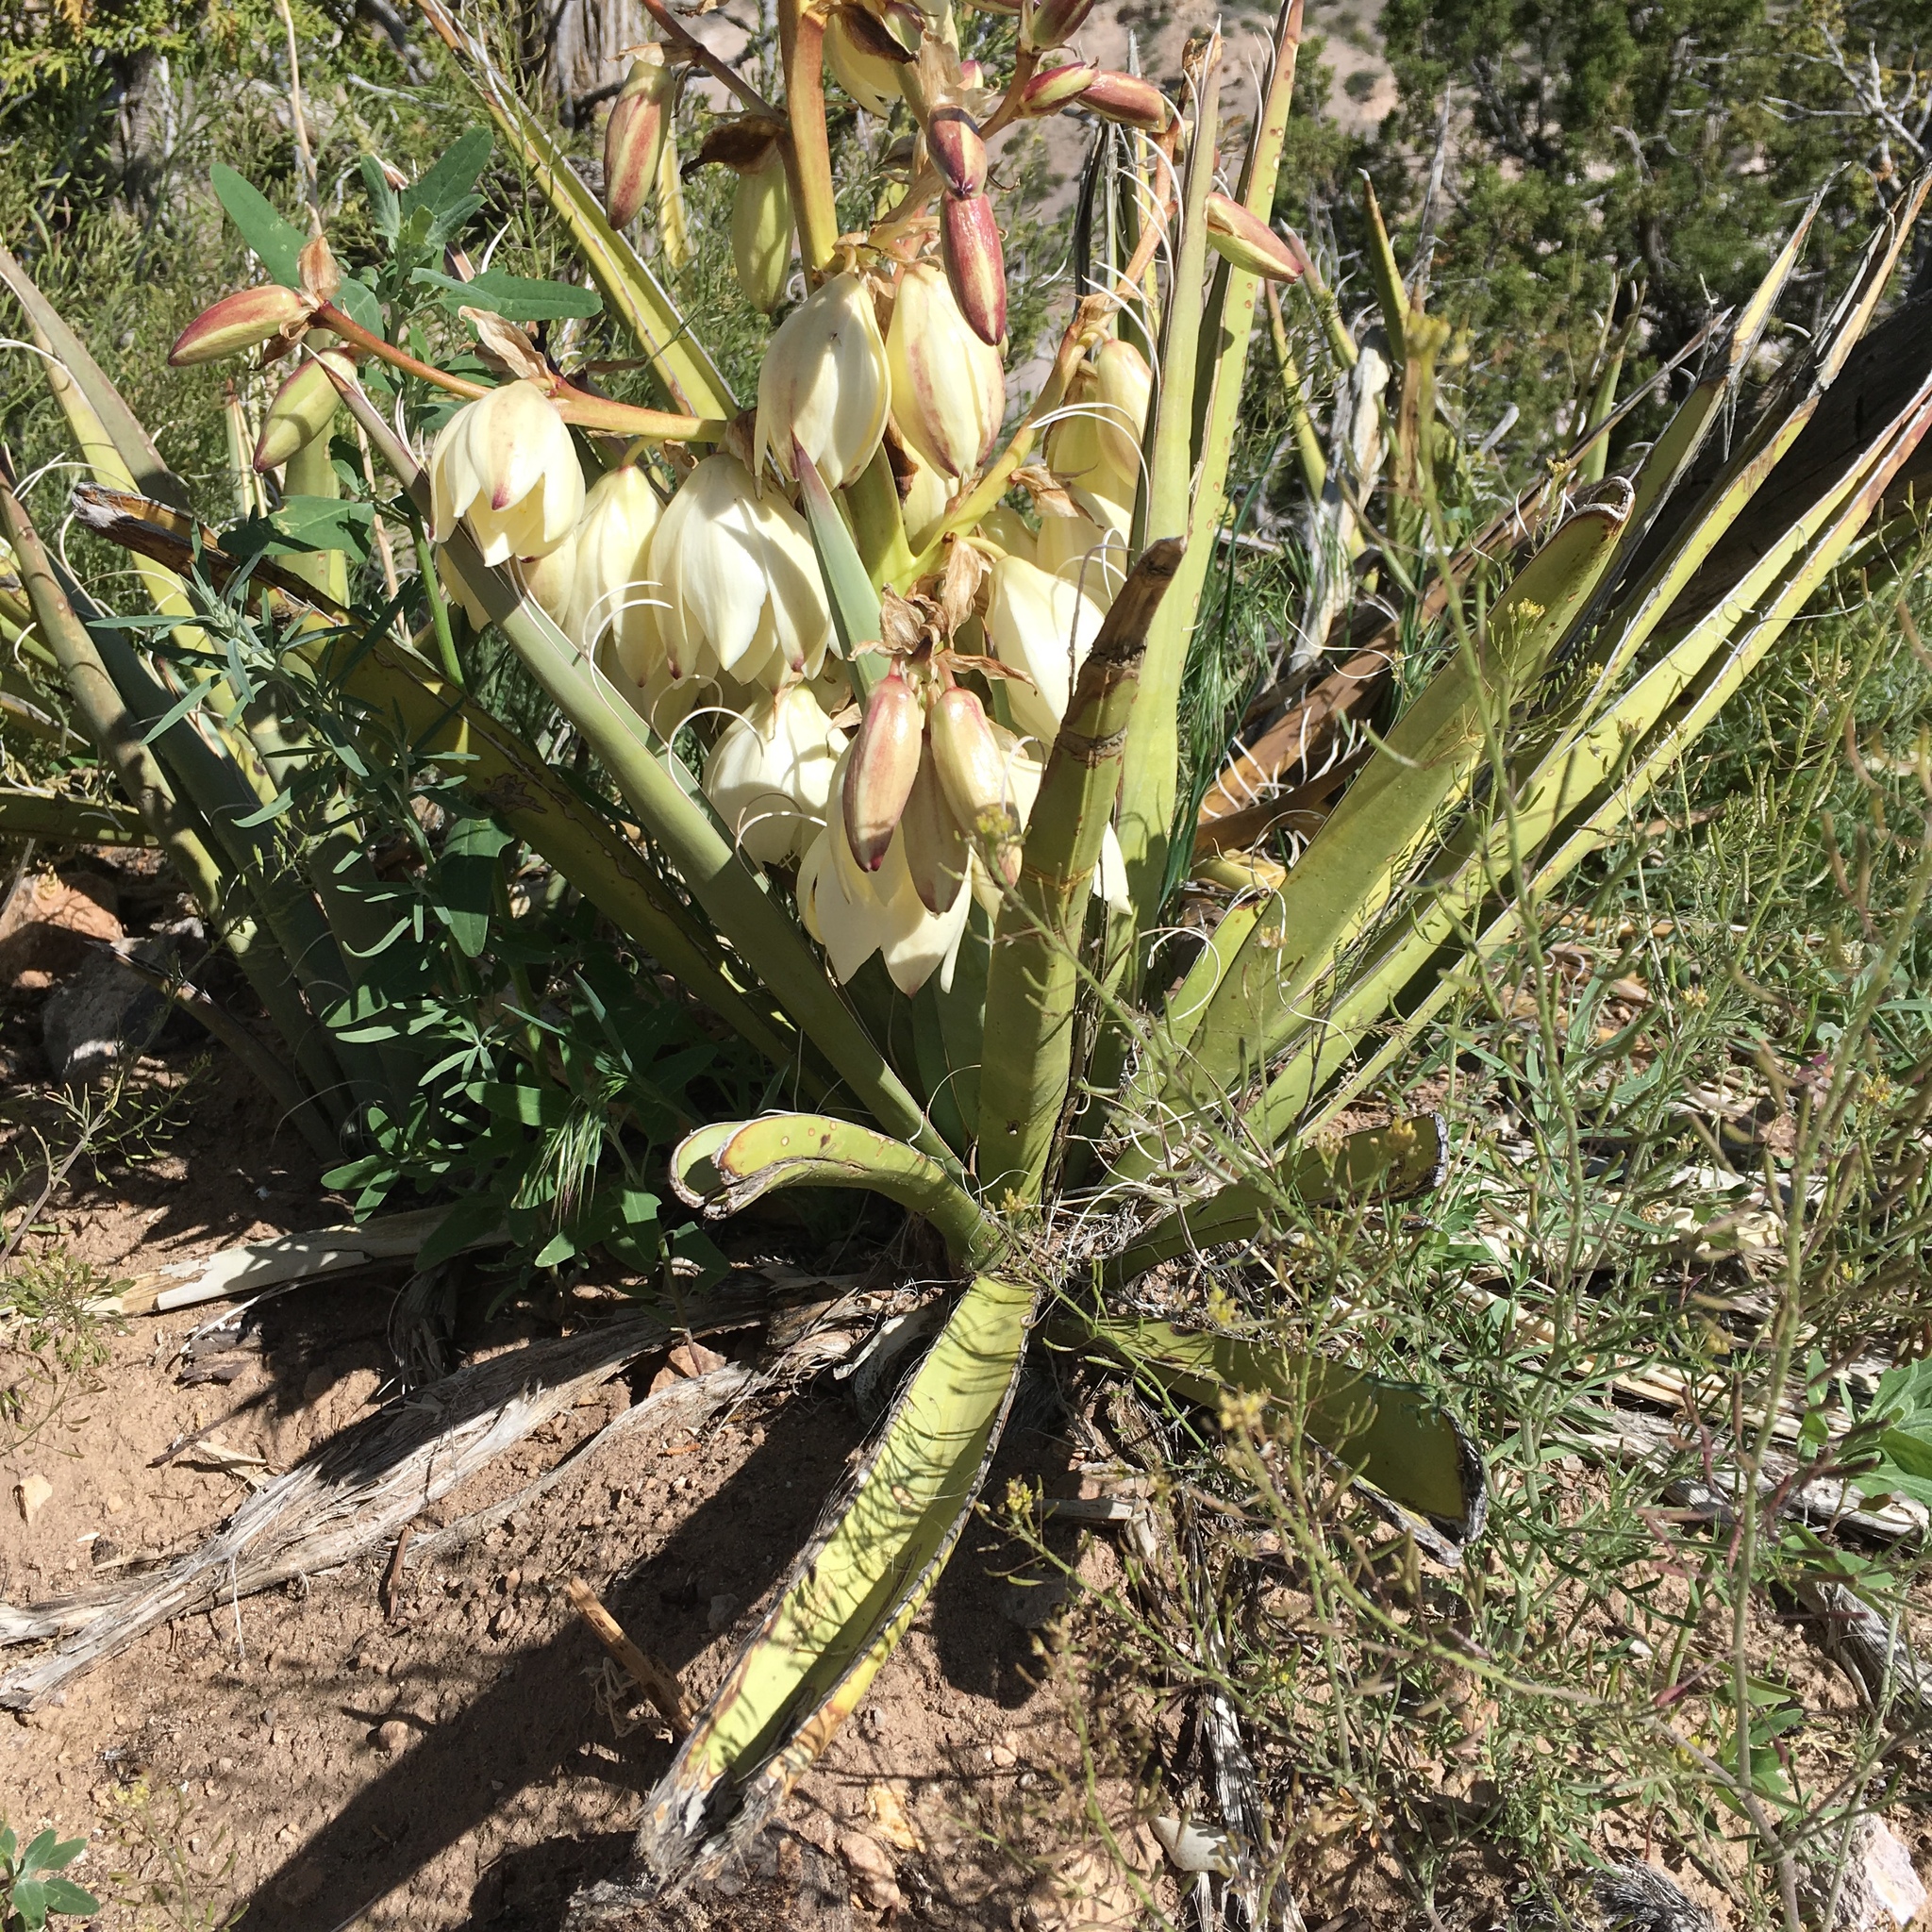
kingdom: Plantae
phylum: Tracheophyta
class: Liliopsida
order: Asparagales
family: Asparagaceae
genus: Yucca
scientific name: Yucca baccata
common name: Banana yucca
